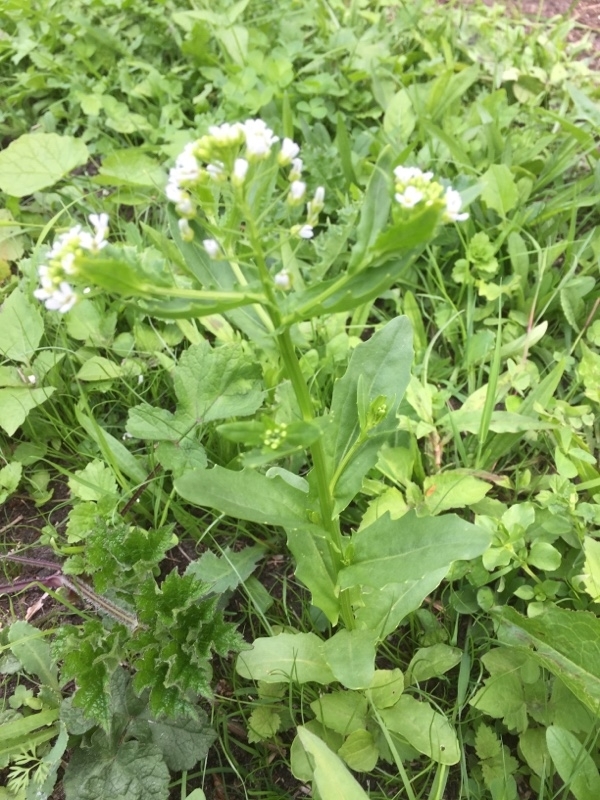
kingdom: Plantae
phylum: Tracheophyta
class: Magnoliopsida
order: Brassicales
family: Brassicaceae
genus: Thlaspi
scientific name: Thlaspi arvense
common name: Field pennycress
